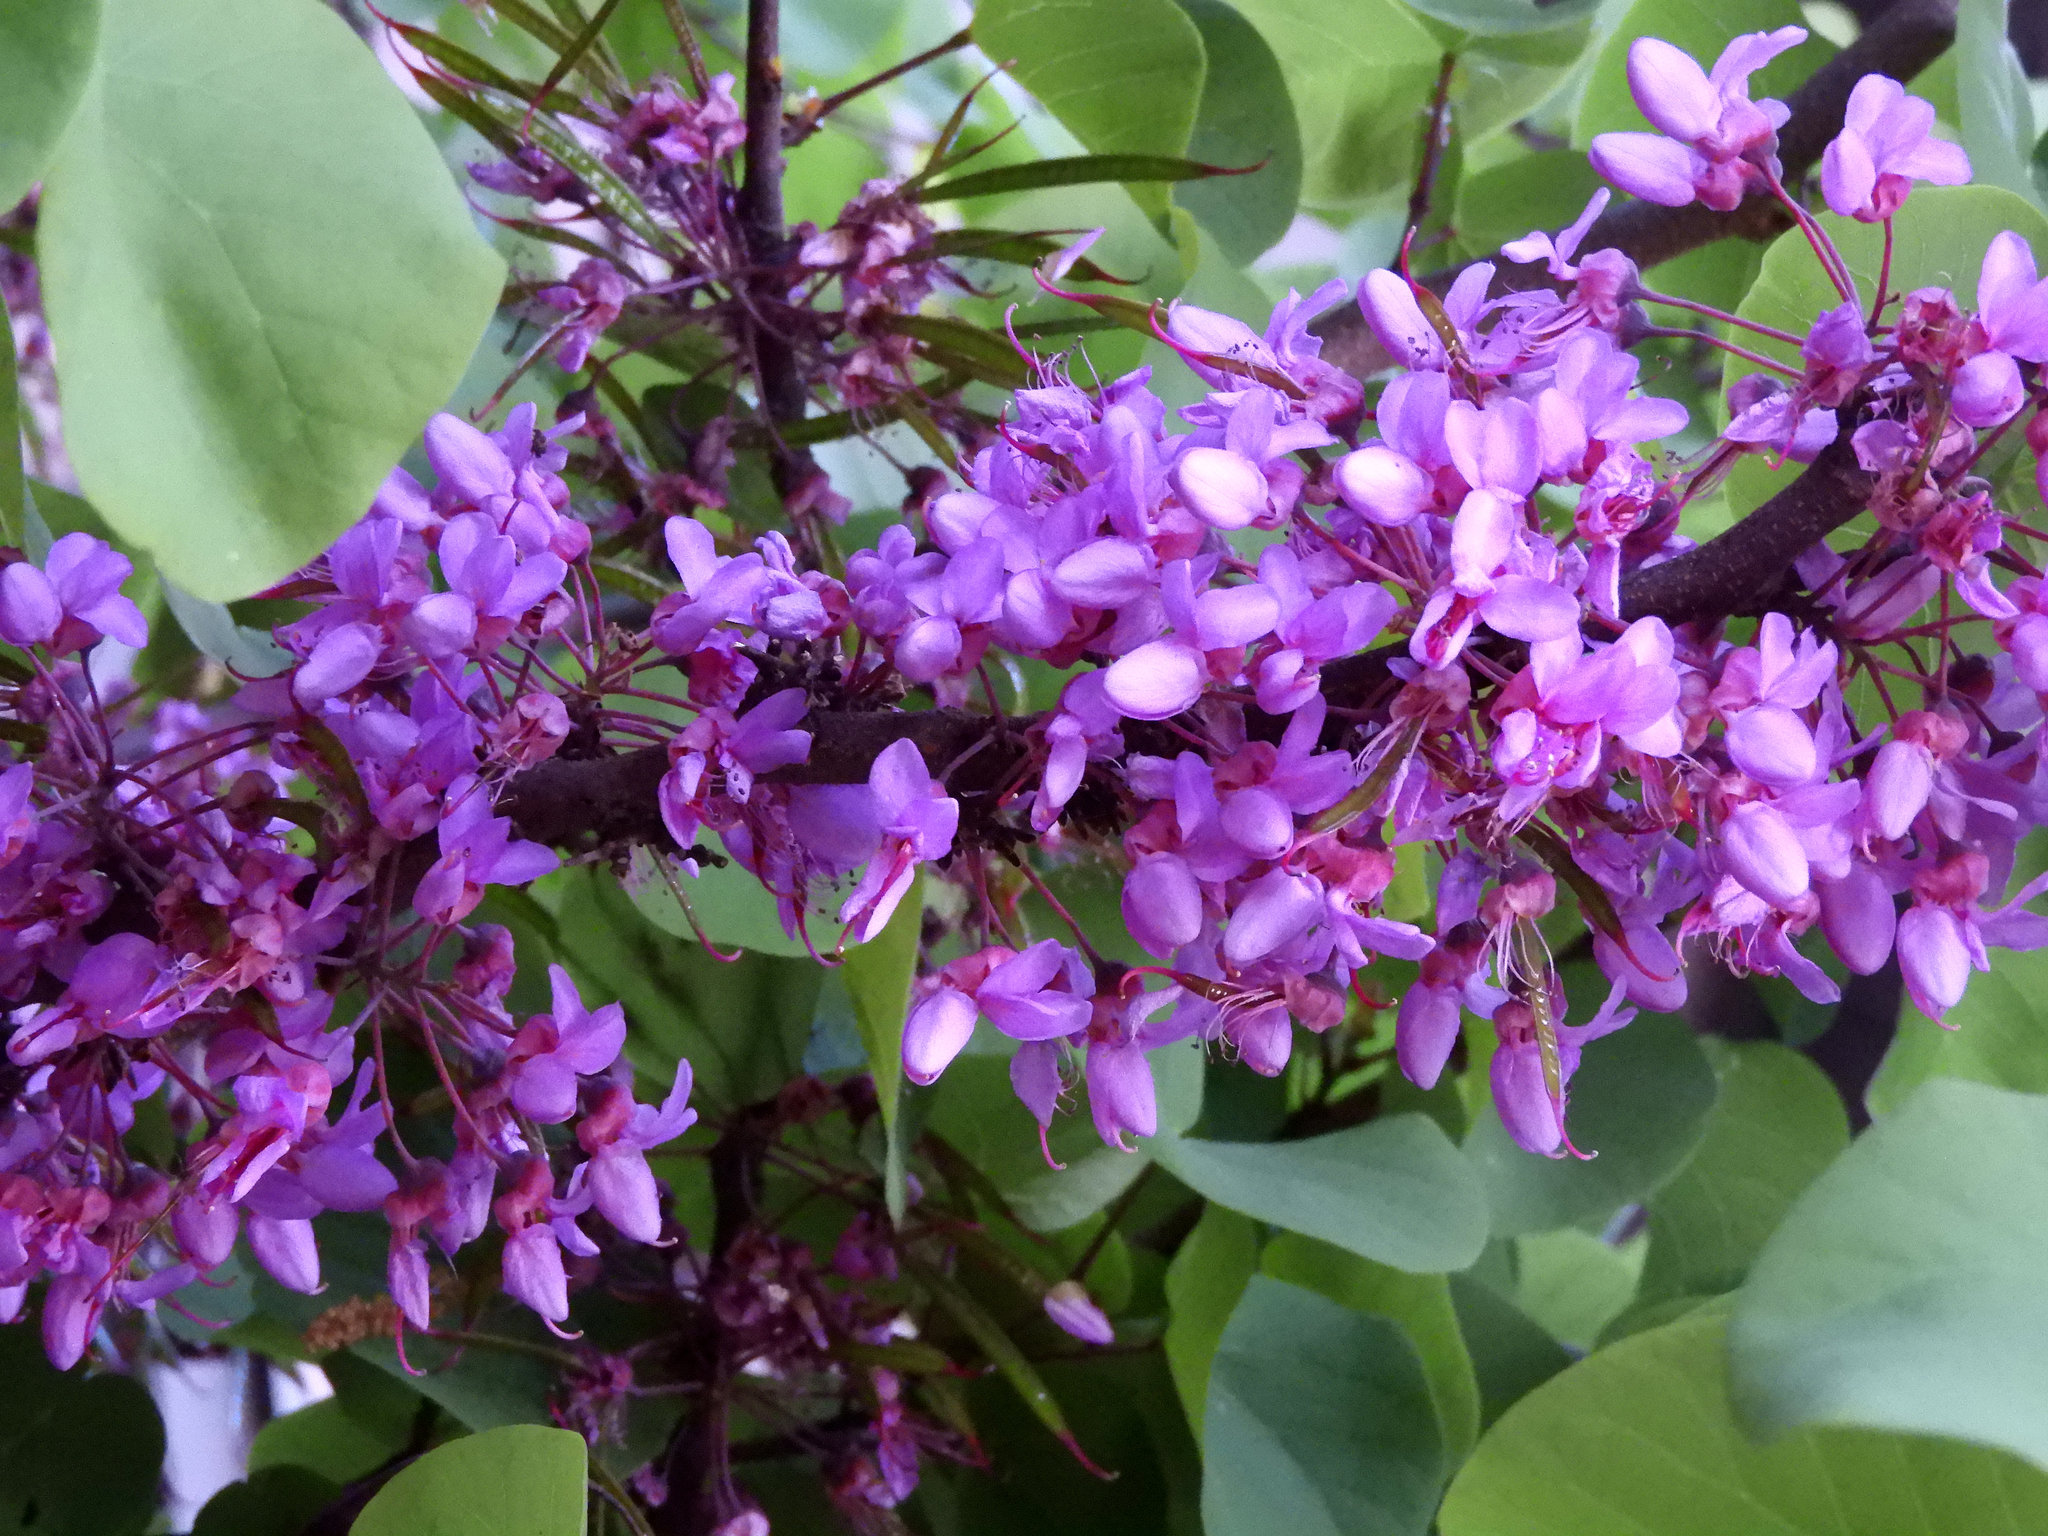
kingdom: Plantae
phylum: Tracheophyta
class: Magnoliopsida
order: Fabales
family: Fabaceae
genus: Cercis
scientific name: Cercis occidentalis
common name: California redbud
